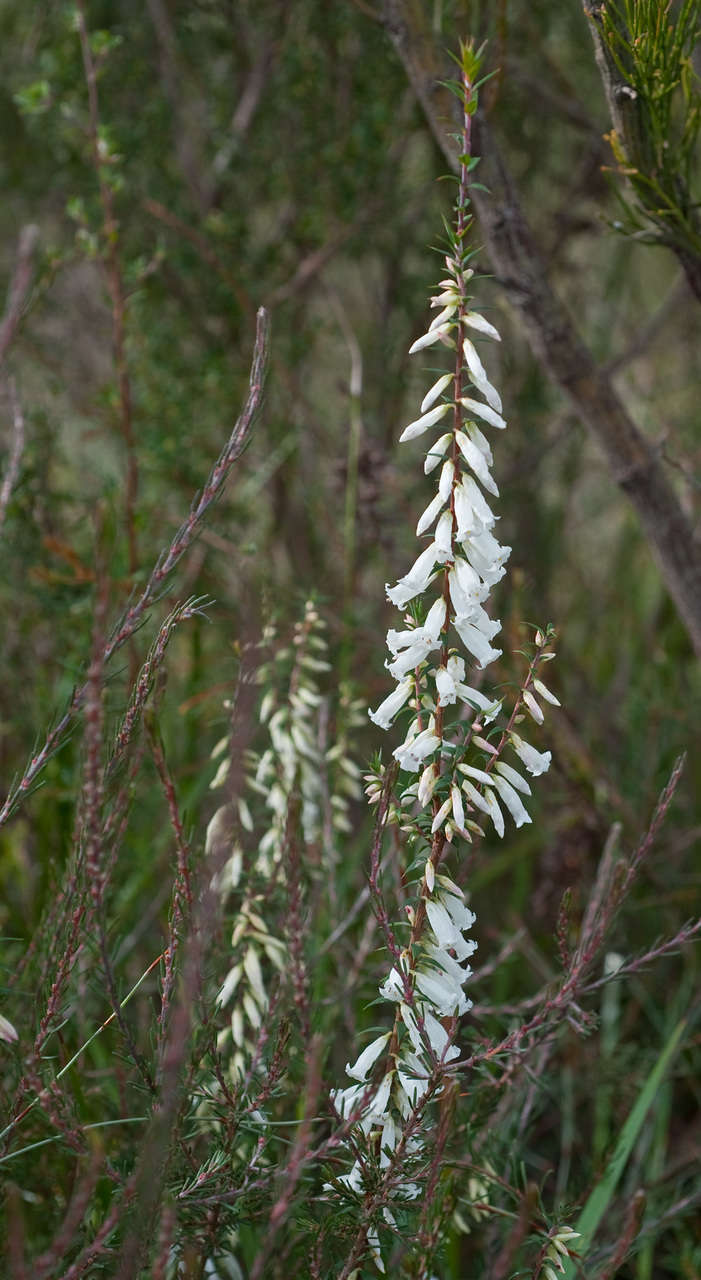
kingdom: Plantae
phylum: Tracheophyta
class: Magnoliopsida
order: Ericales
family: Ericaceae
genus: Epacris
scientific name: Epacris impressa
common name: Common-heath
